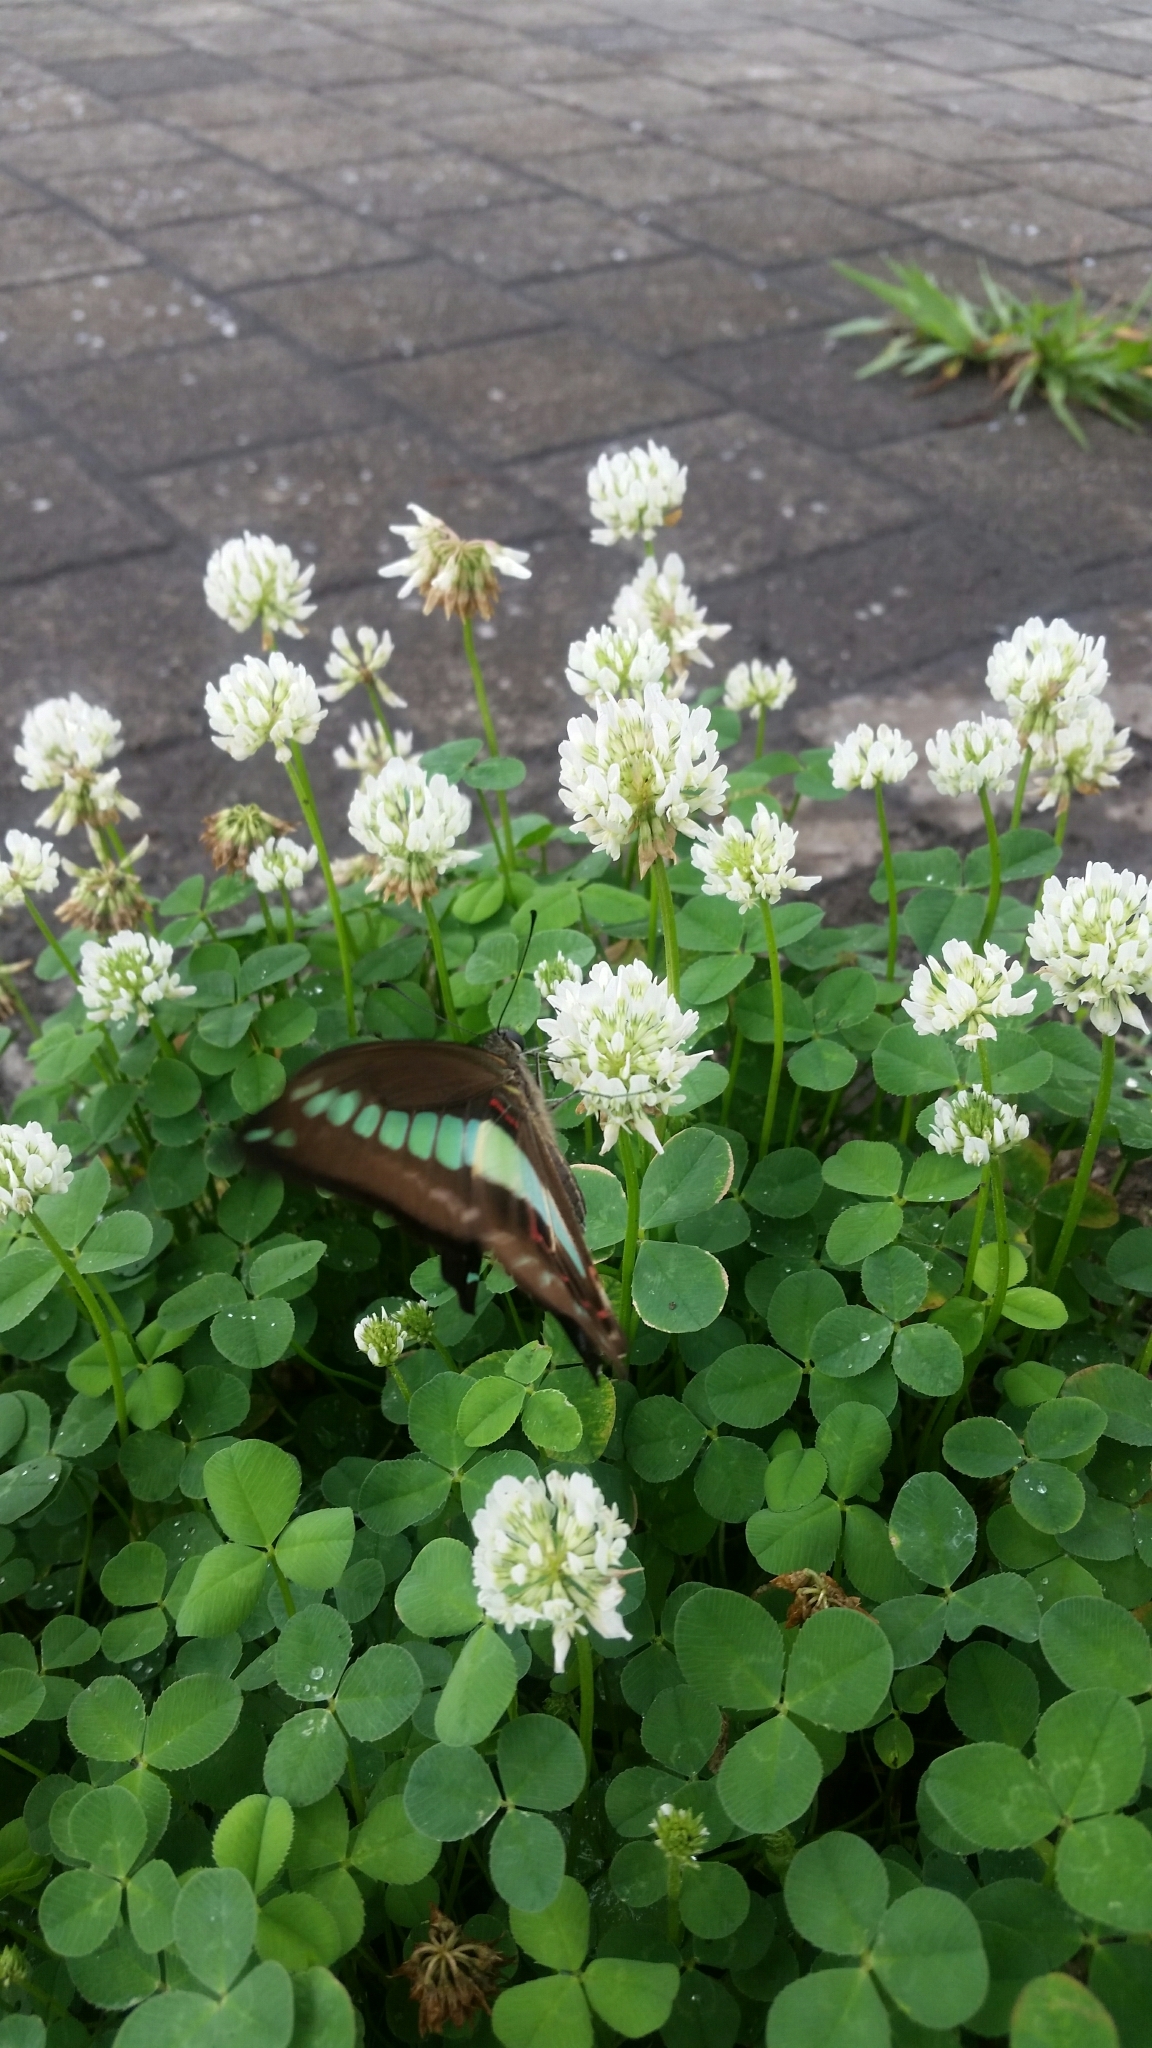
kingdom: Fungi
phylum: Ascomycota
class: Sordariomycetes
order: Microascales
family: Microascaceae
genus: Graphium
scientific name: Graphium sarpedon
